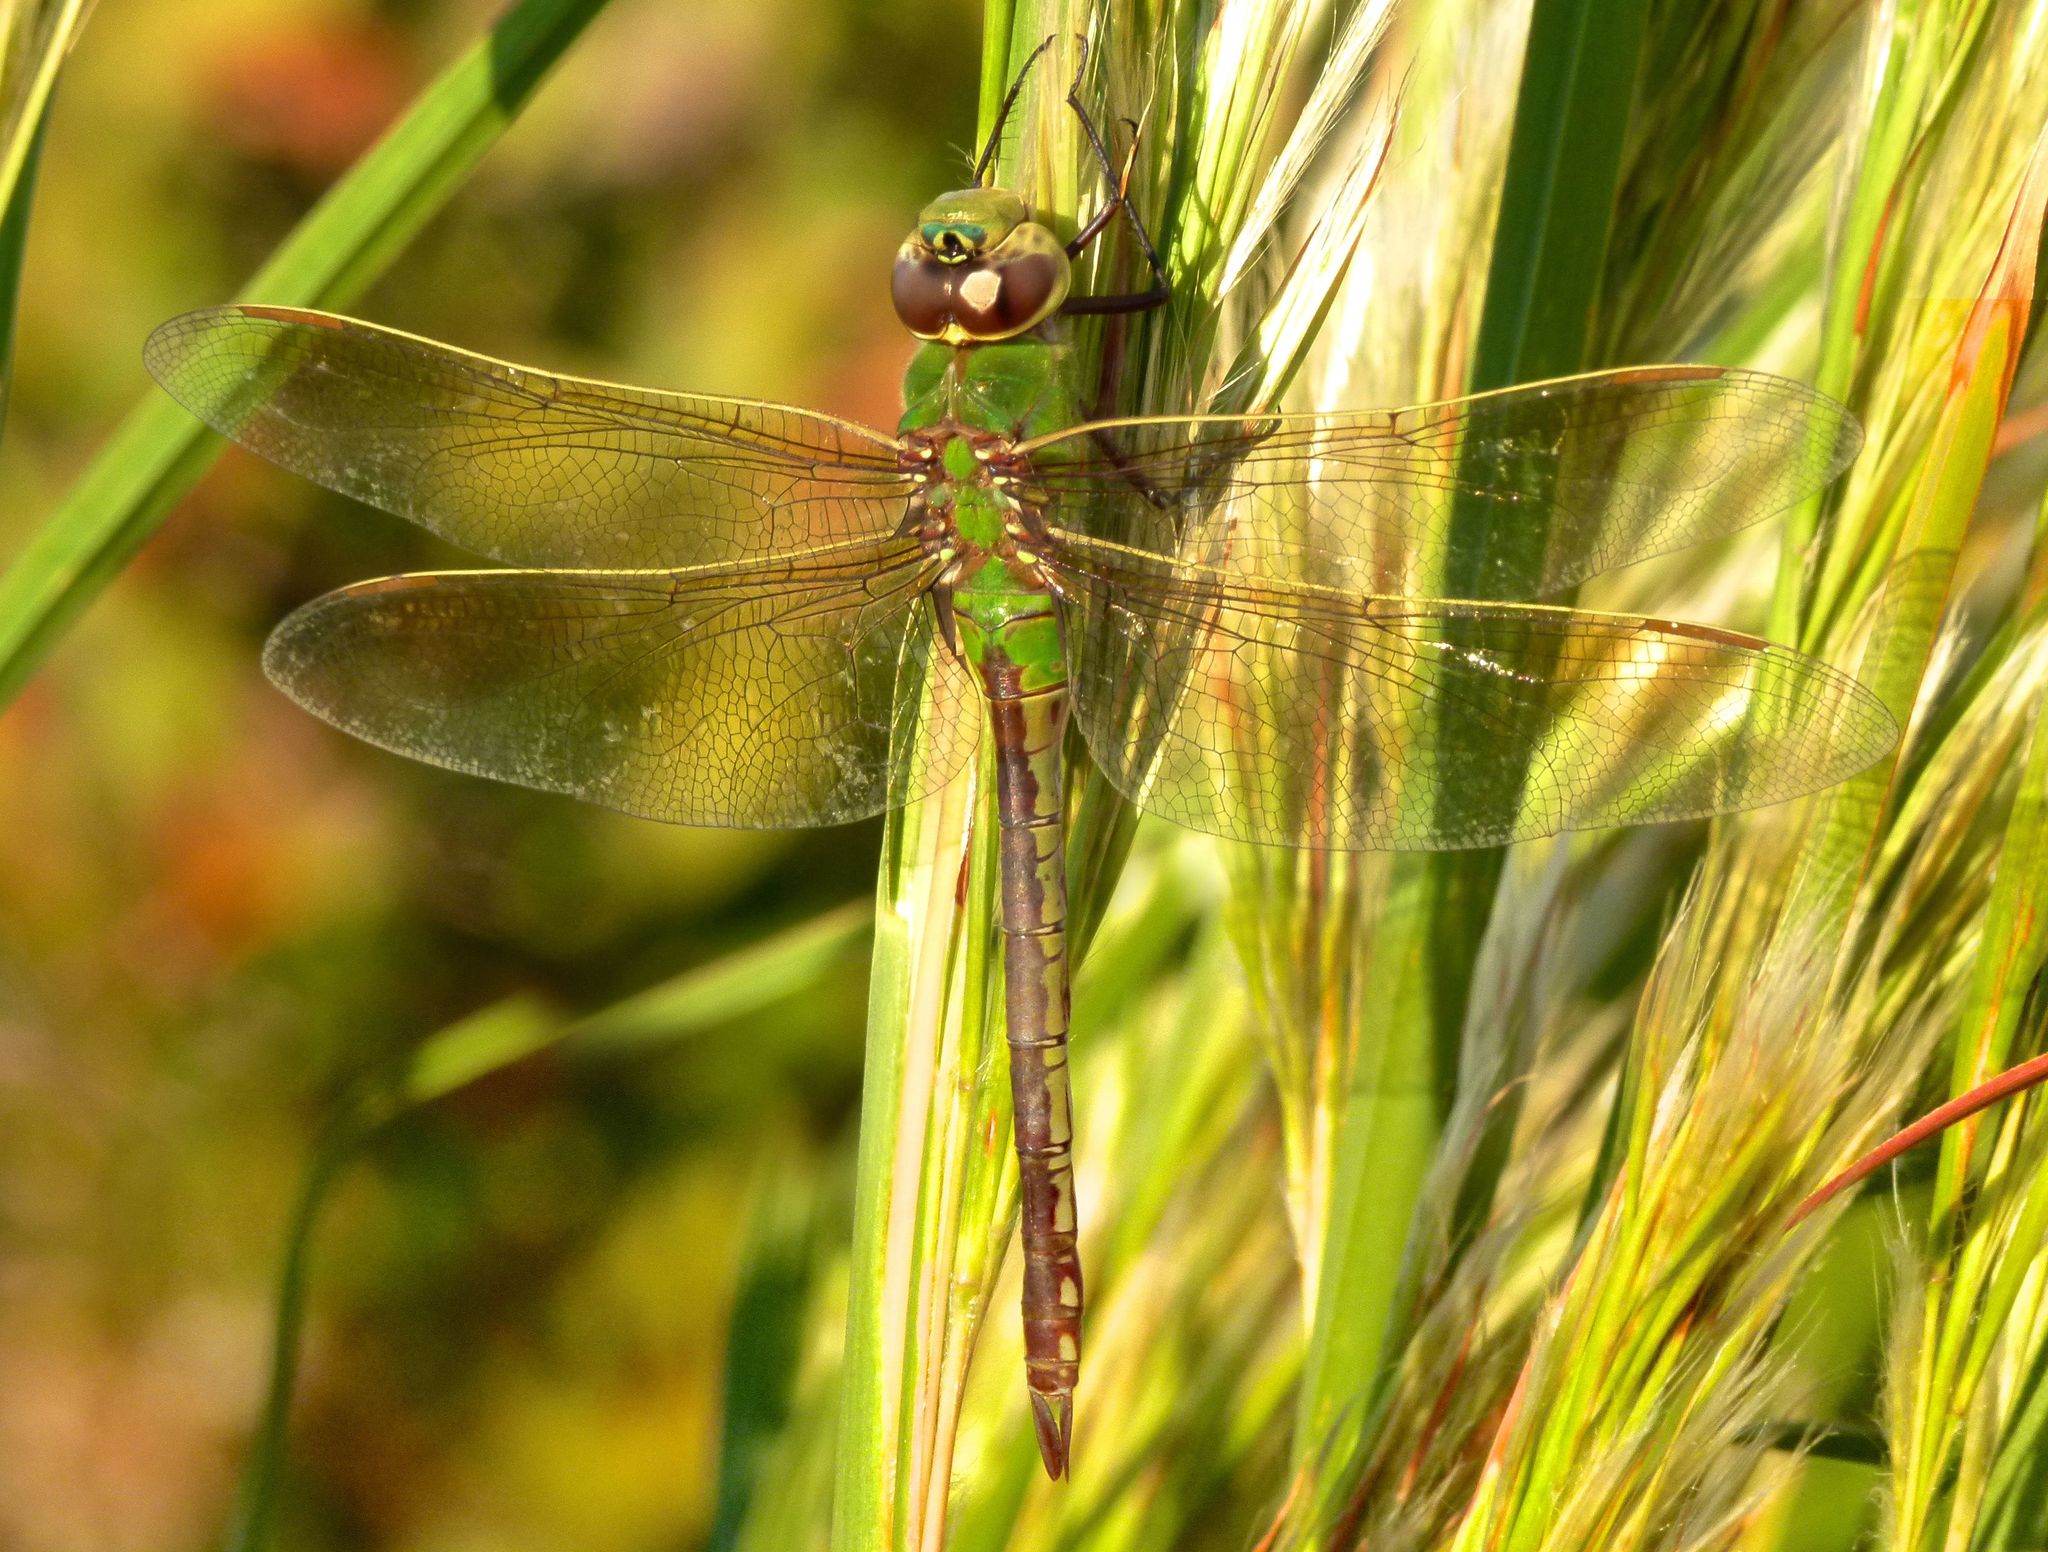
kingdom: Animalia
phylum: Arthropoda
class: Insecta
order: Odonata
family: Aeshnidae
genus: Anax
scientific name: Anax junius
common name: Common green darner
